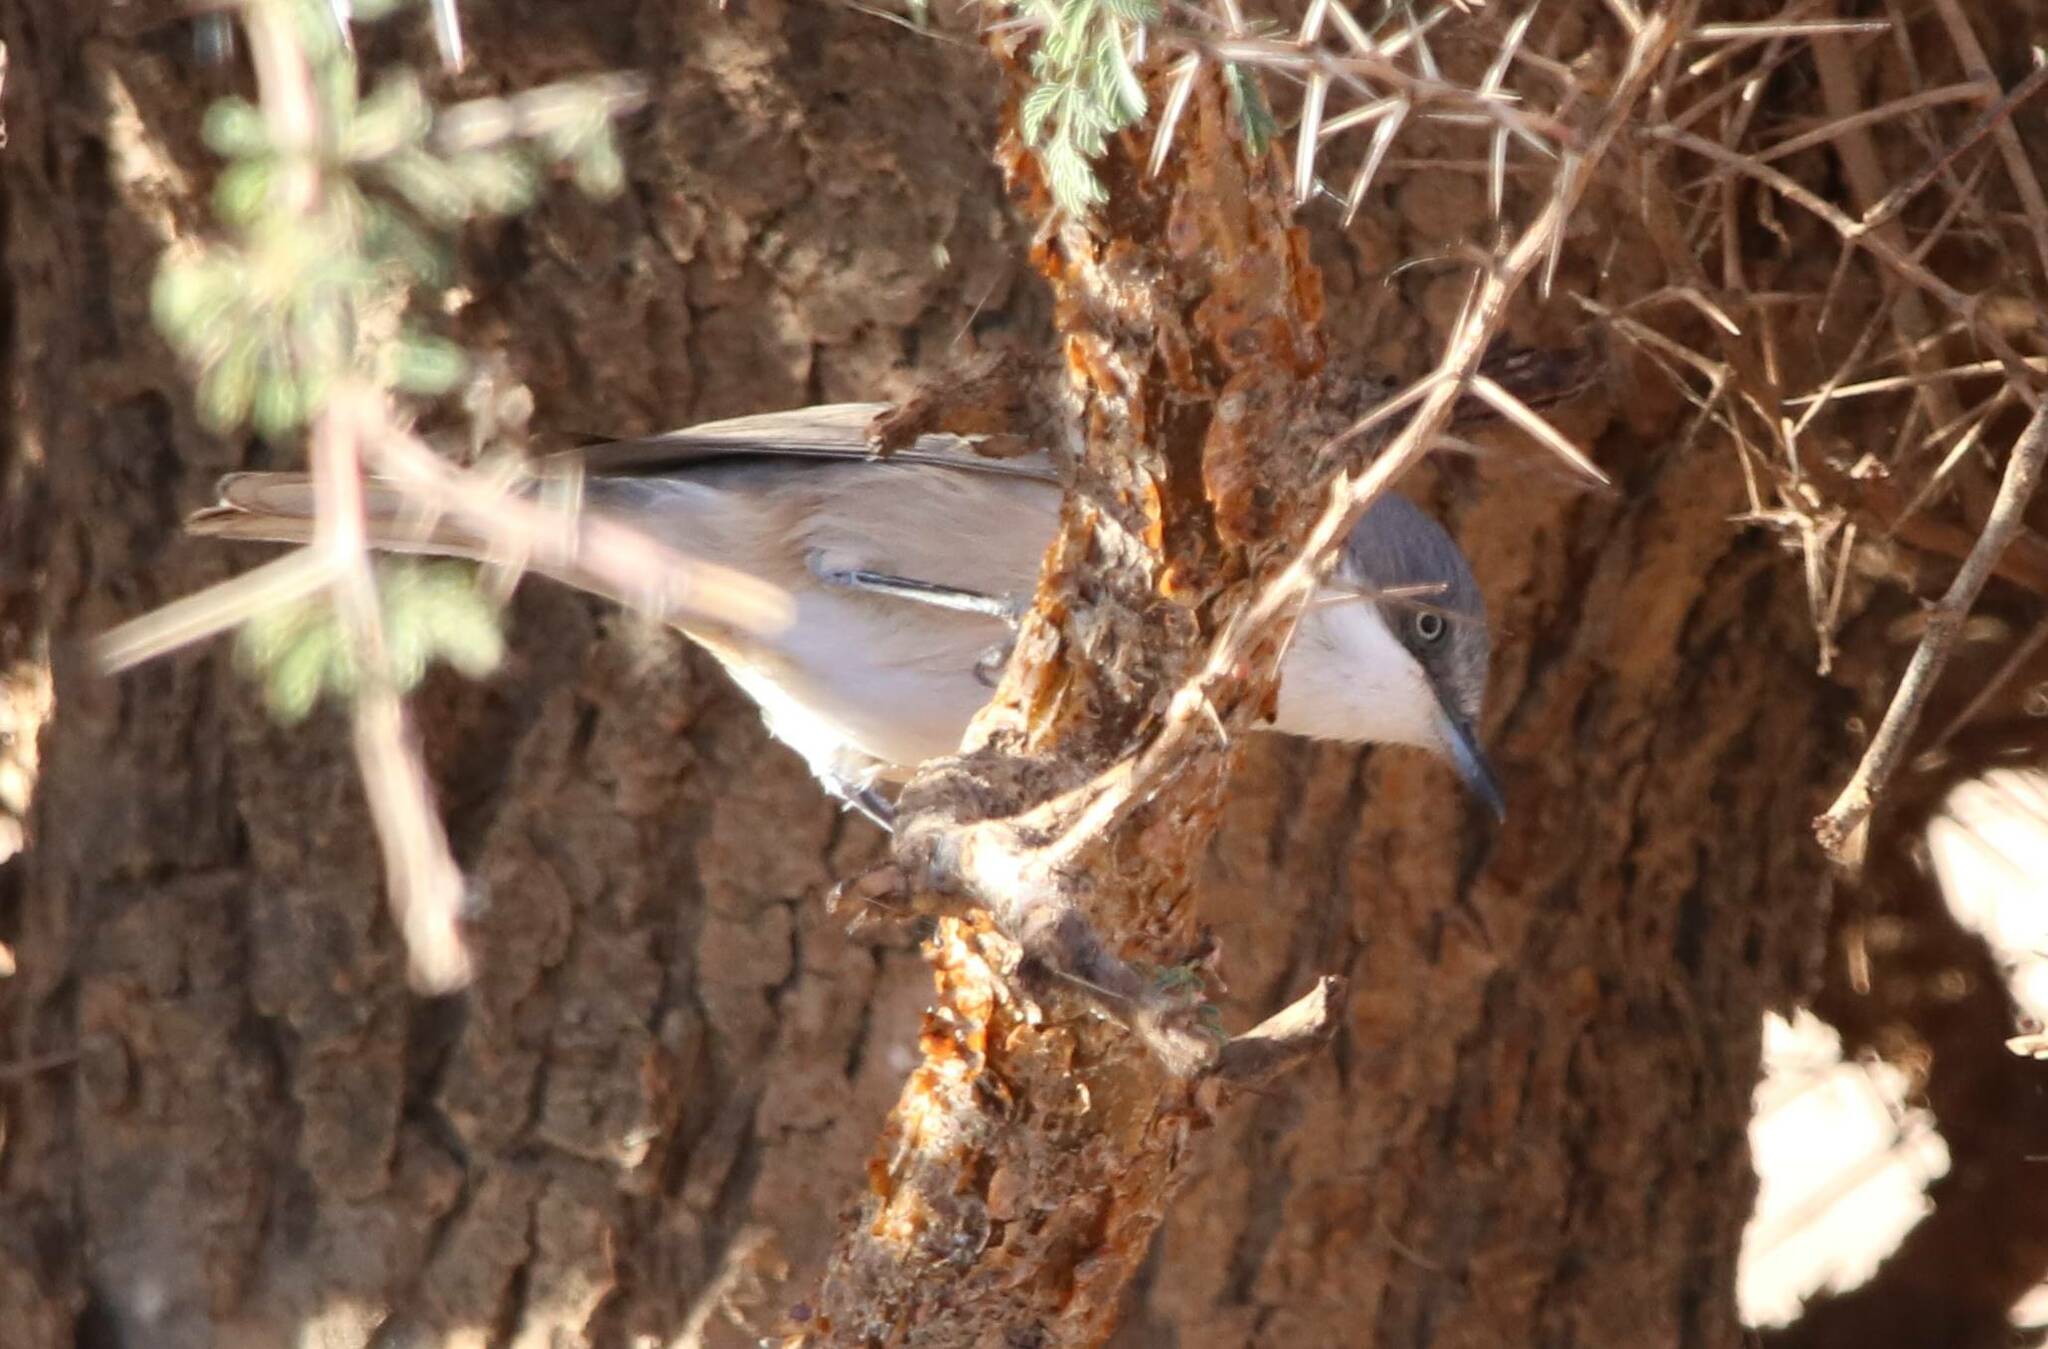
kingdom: Animalia
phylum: Chordata
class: Aves
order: Passeriformes
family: Sylviidae
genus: Sylvia
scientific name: Sylvia hortensis
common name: Orphean warbler
